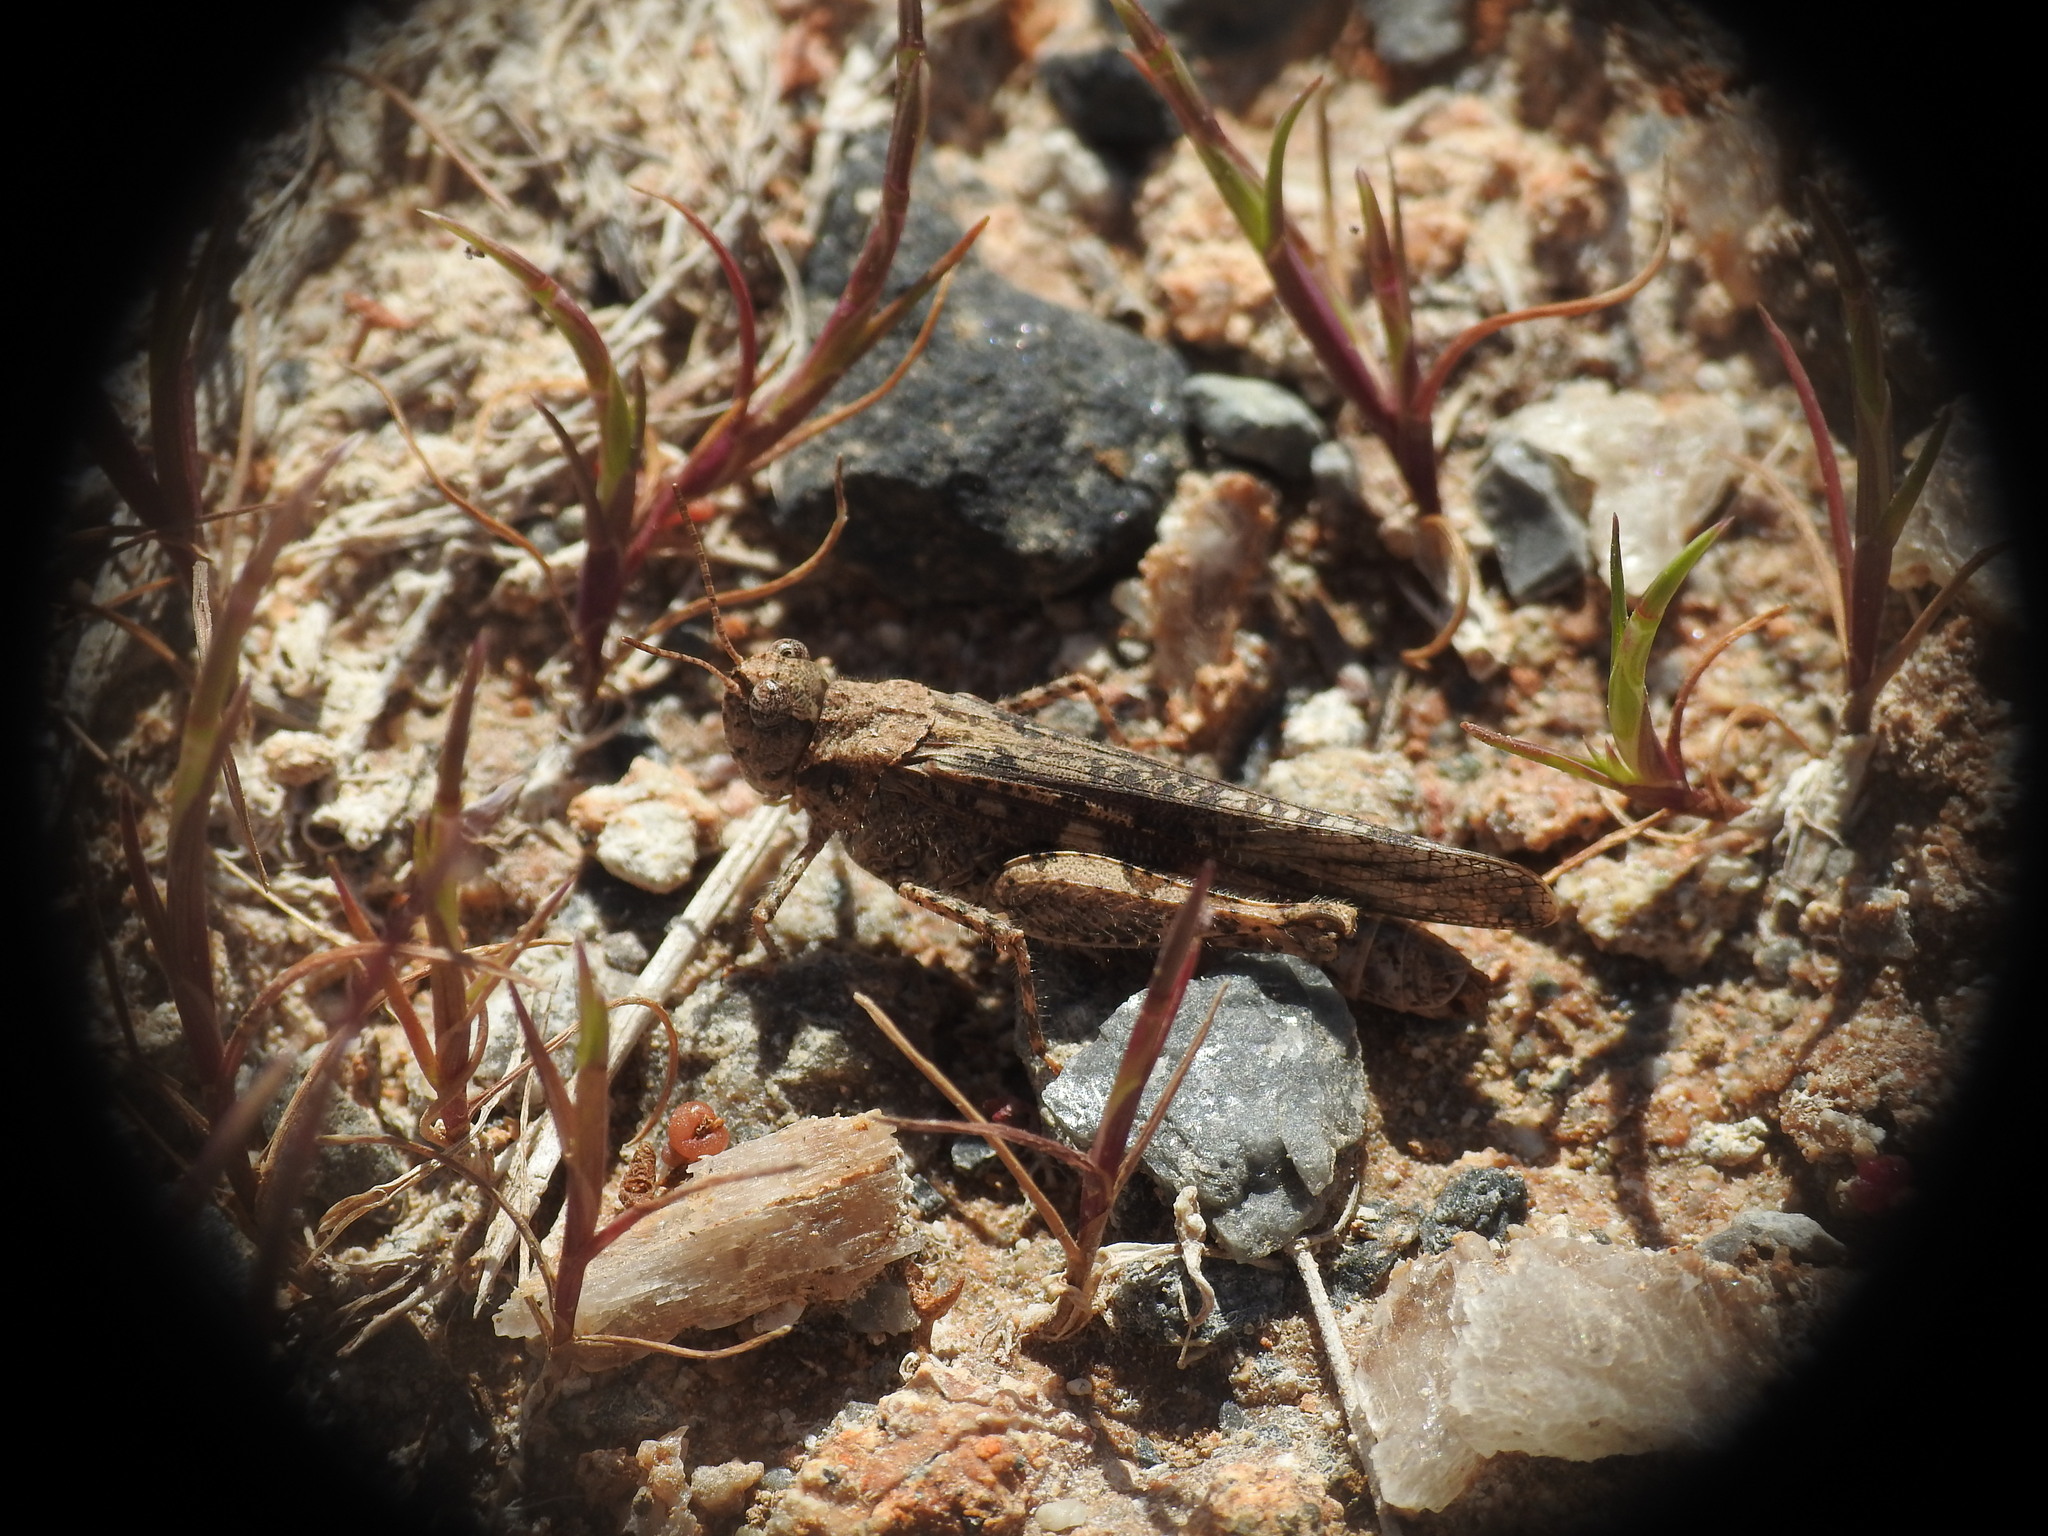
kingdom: Animalia
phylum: Arthropoda
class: Insecta
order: Orthoptera
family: Acrididae
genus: Acrotylus
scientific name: Acrotylus insubricus
